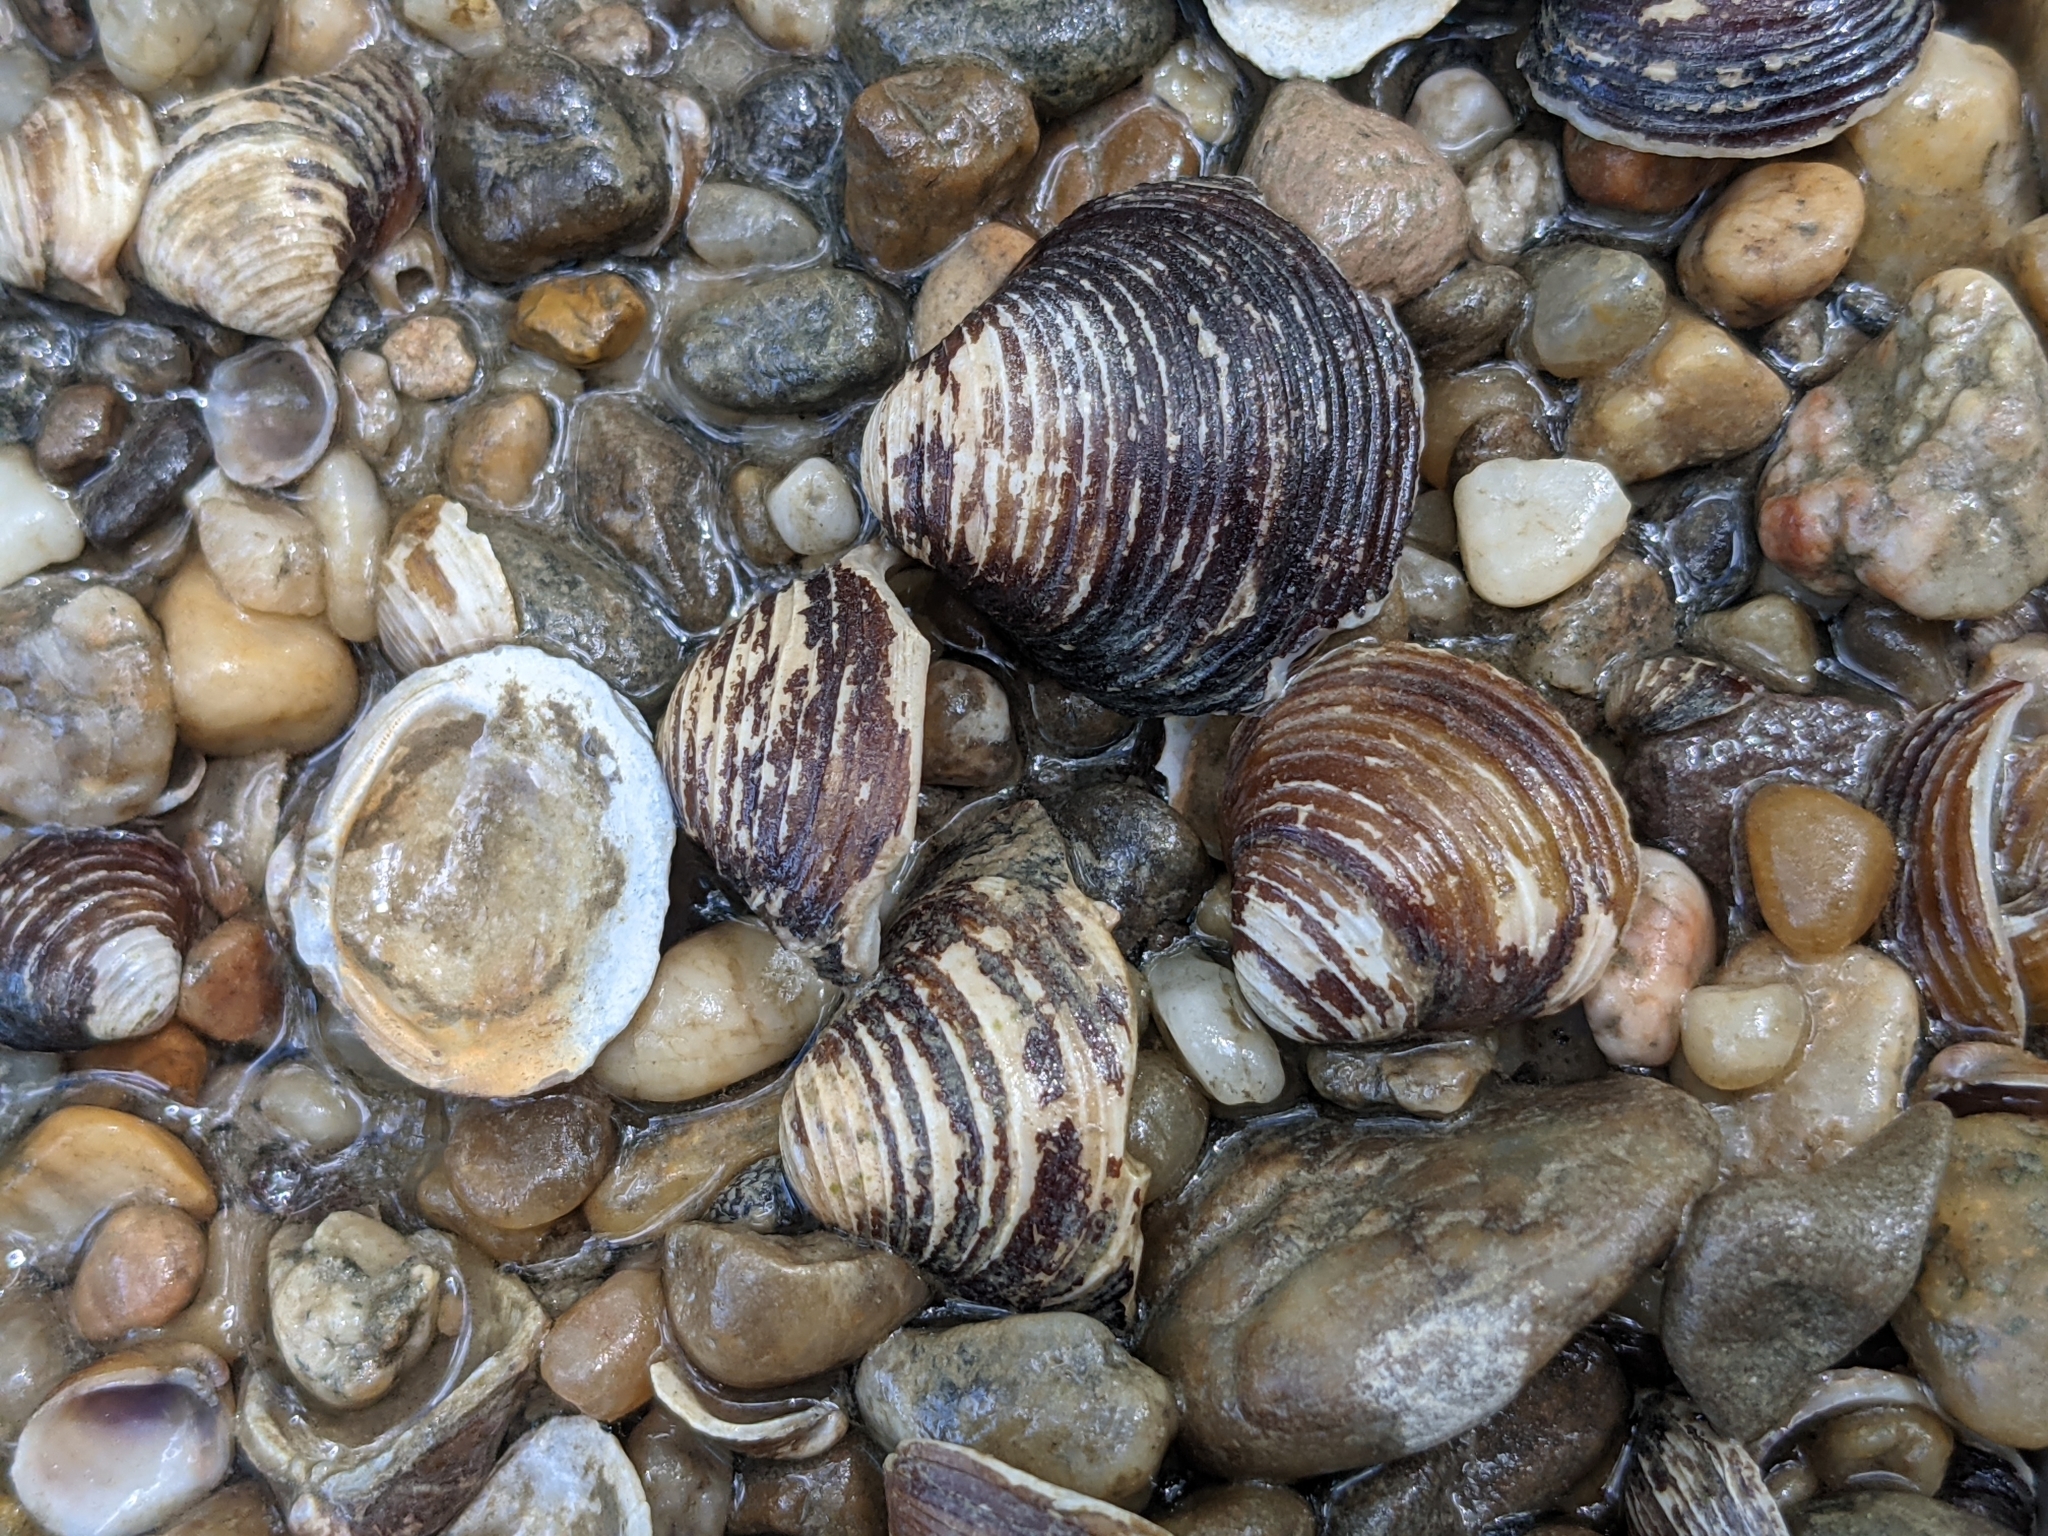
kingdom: Animalia
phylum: Mollusca
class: Bivalvia
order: Venerida
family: Cyrenidae
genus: Corbicula
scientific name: Corbicula fluminea
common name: Asian clam
